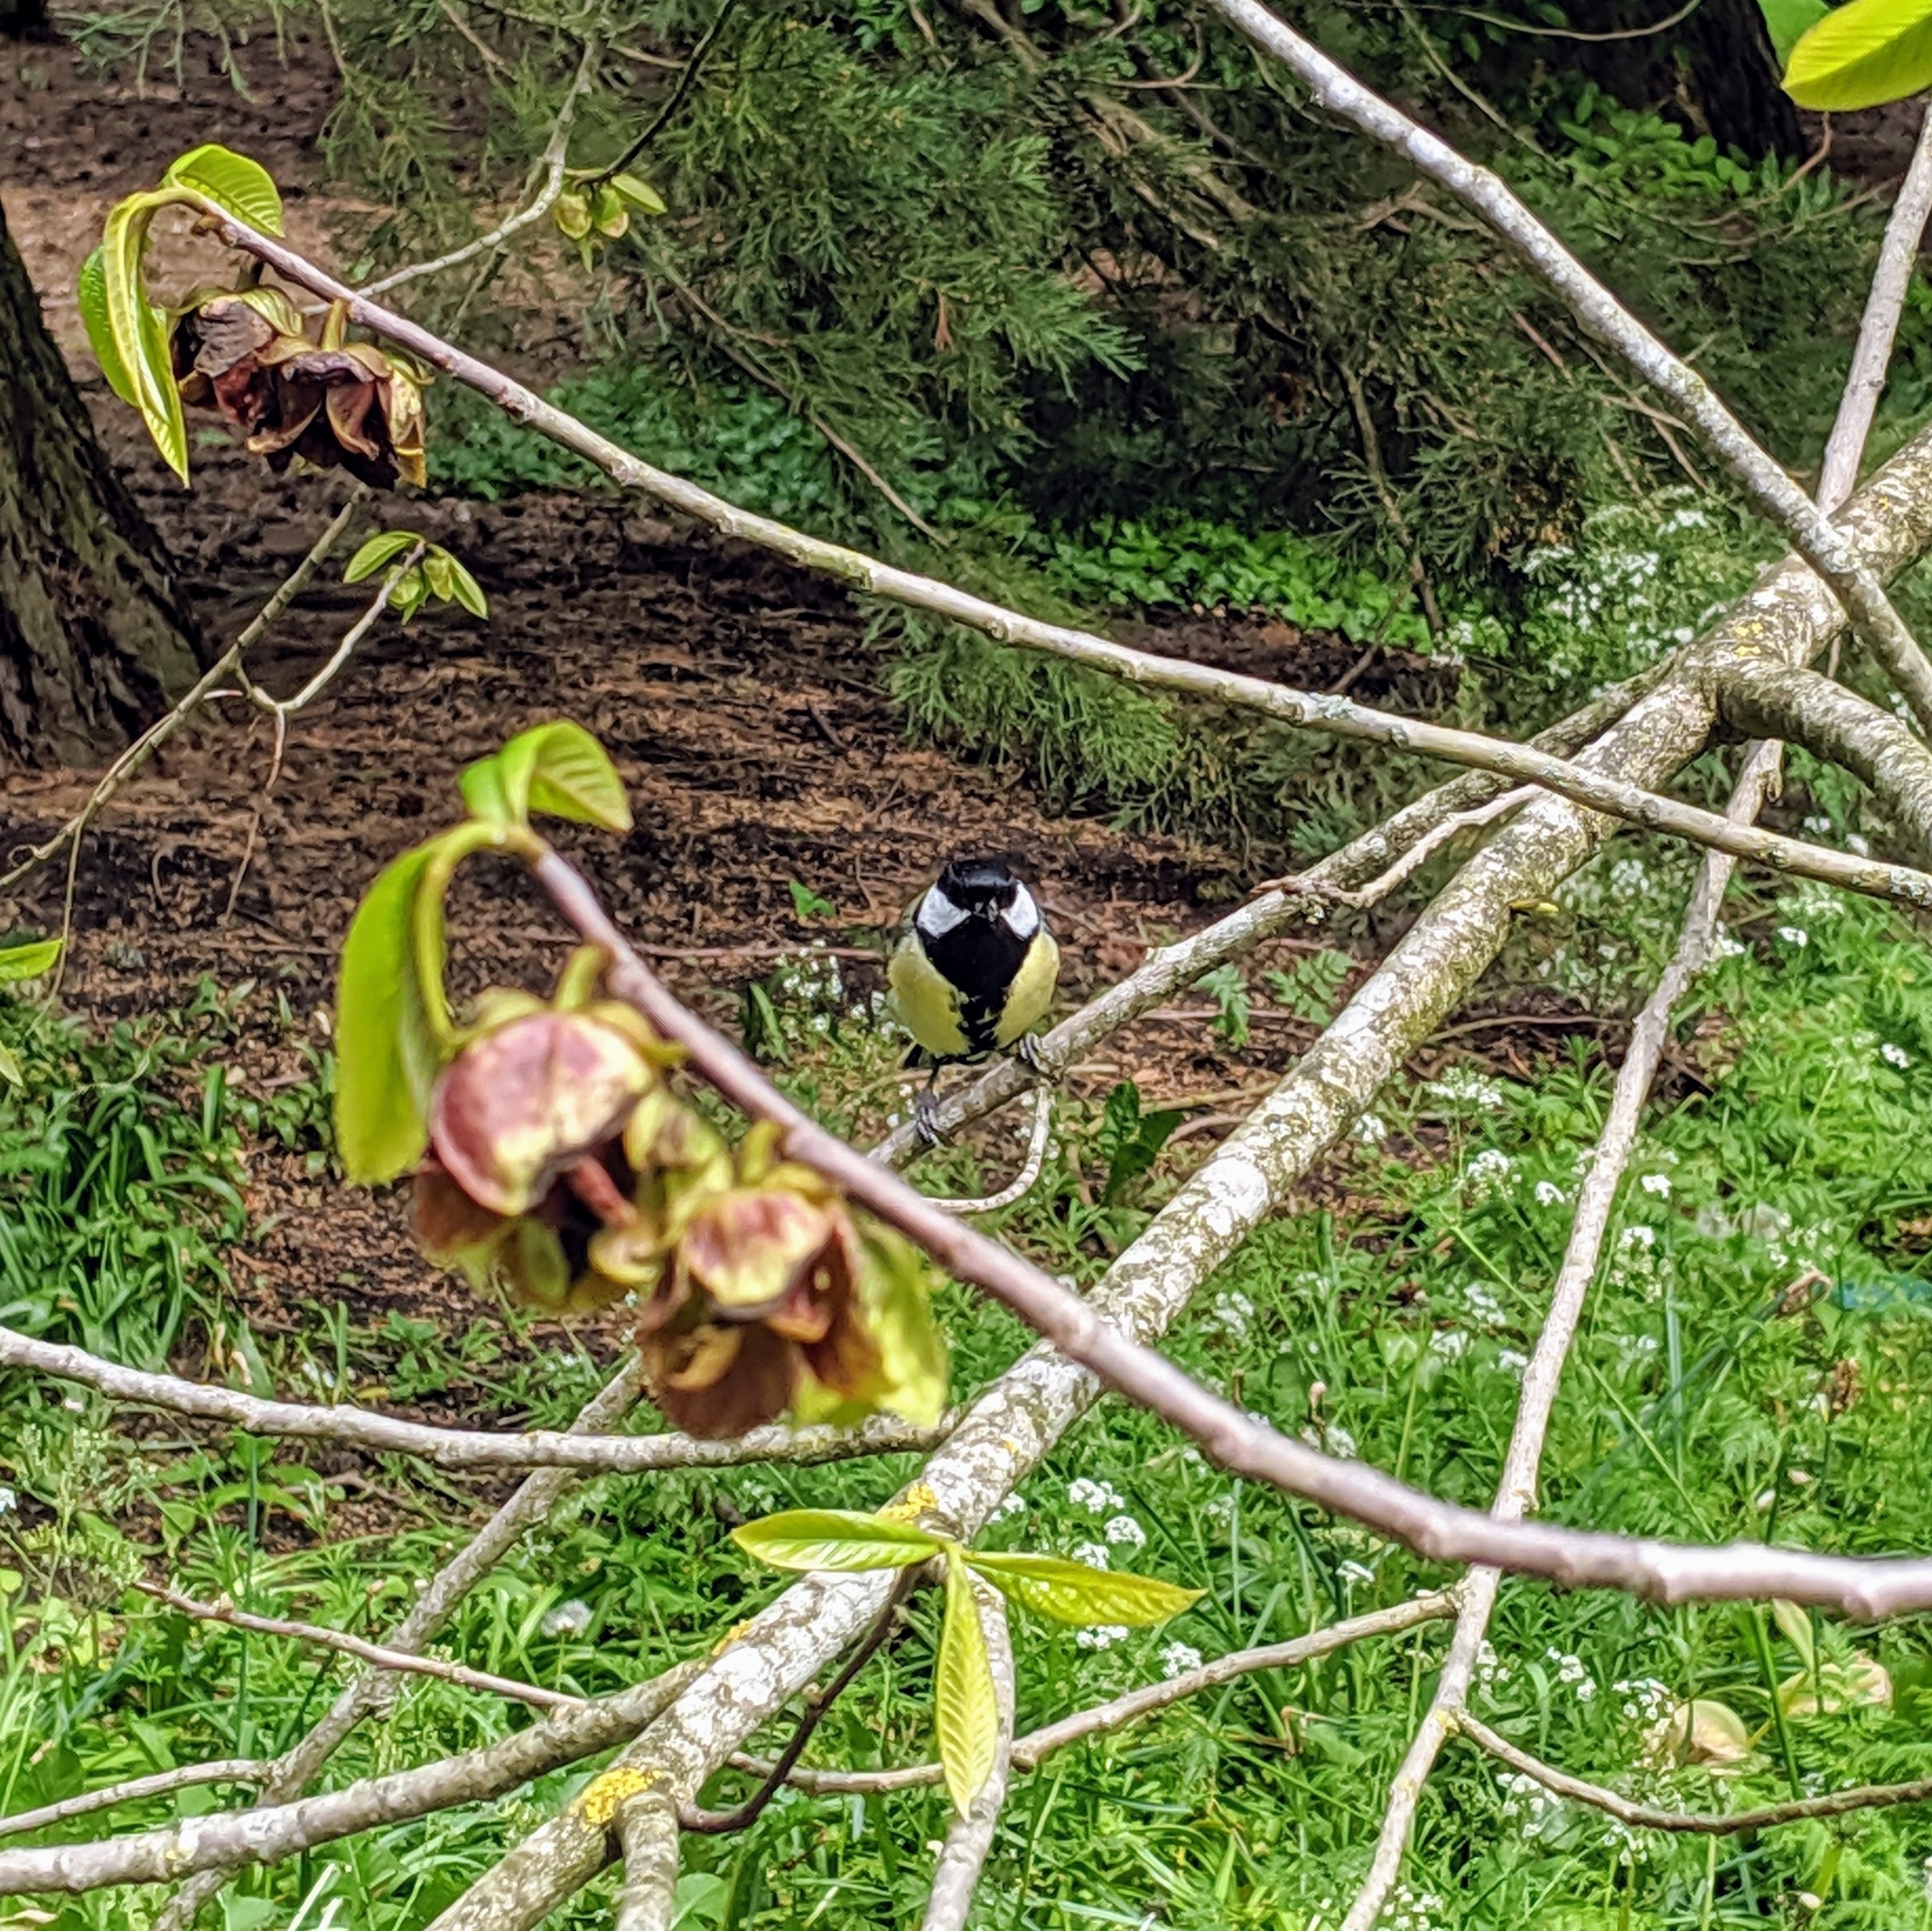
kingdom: Animalia
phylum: Chordata
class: Aves
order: Passeriformes
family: Paridae
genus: Parus
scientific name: Parus major
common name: Great tit
